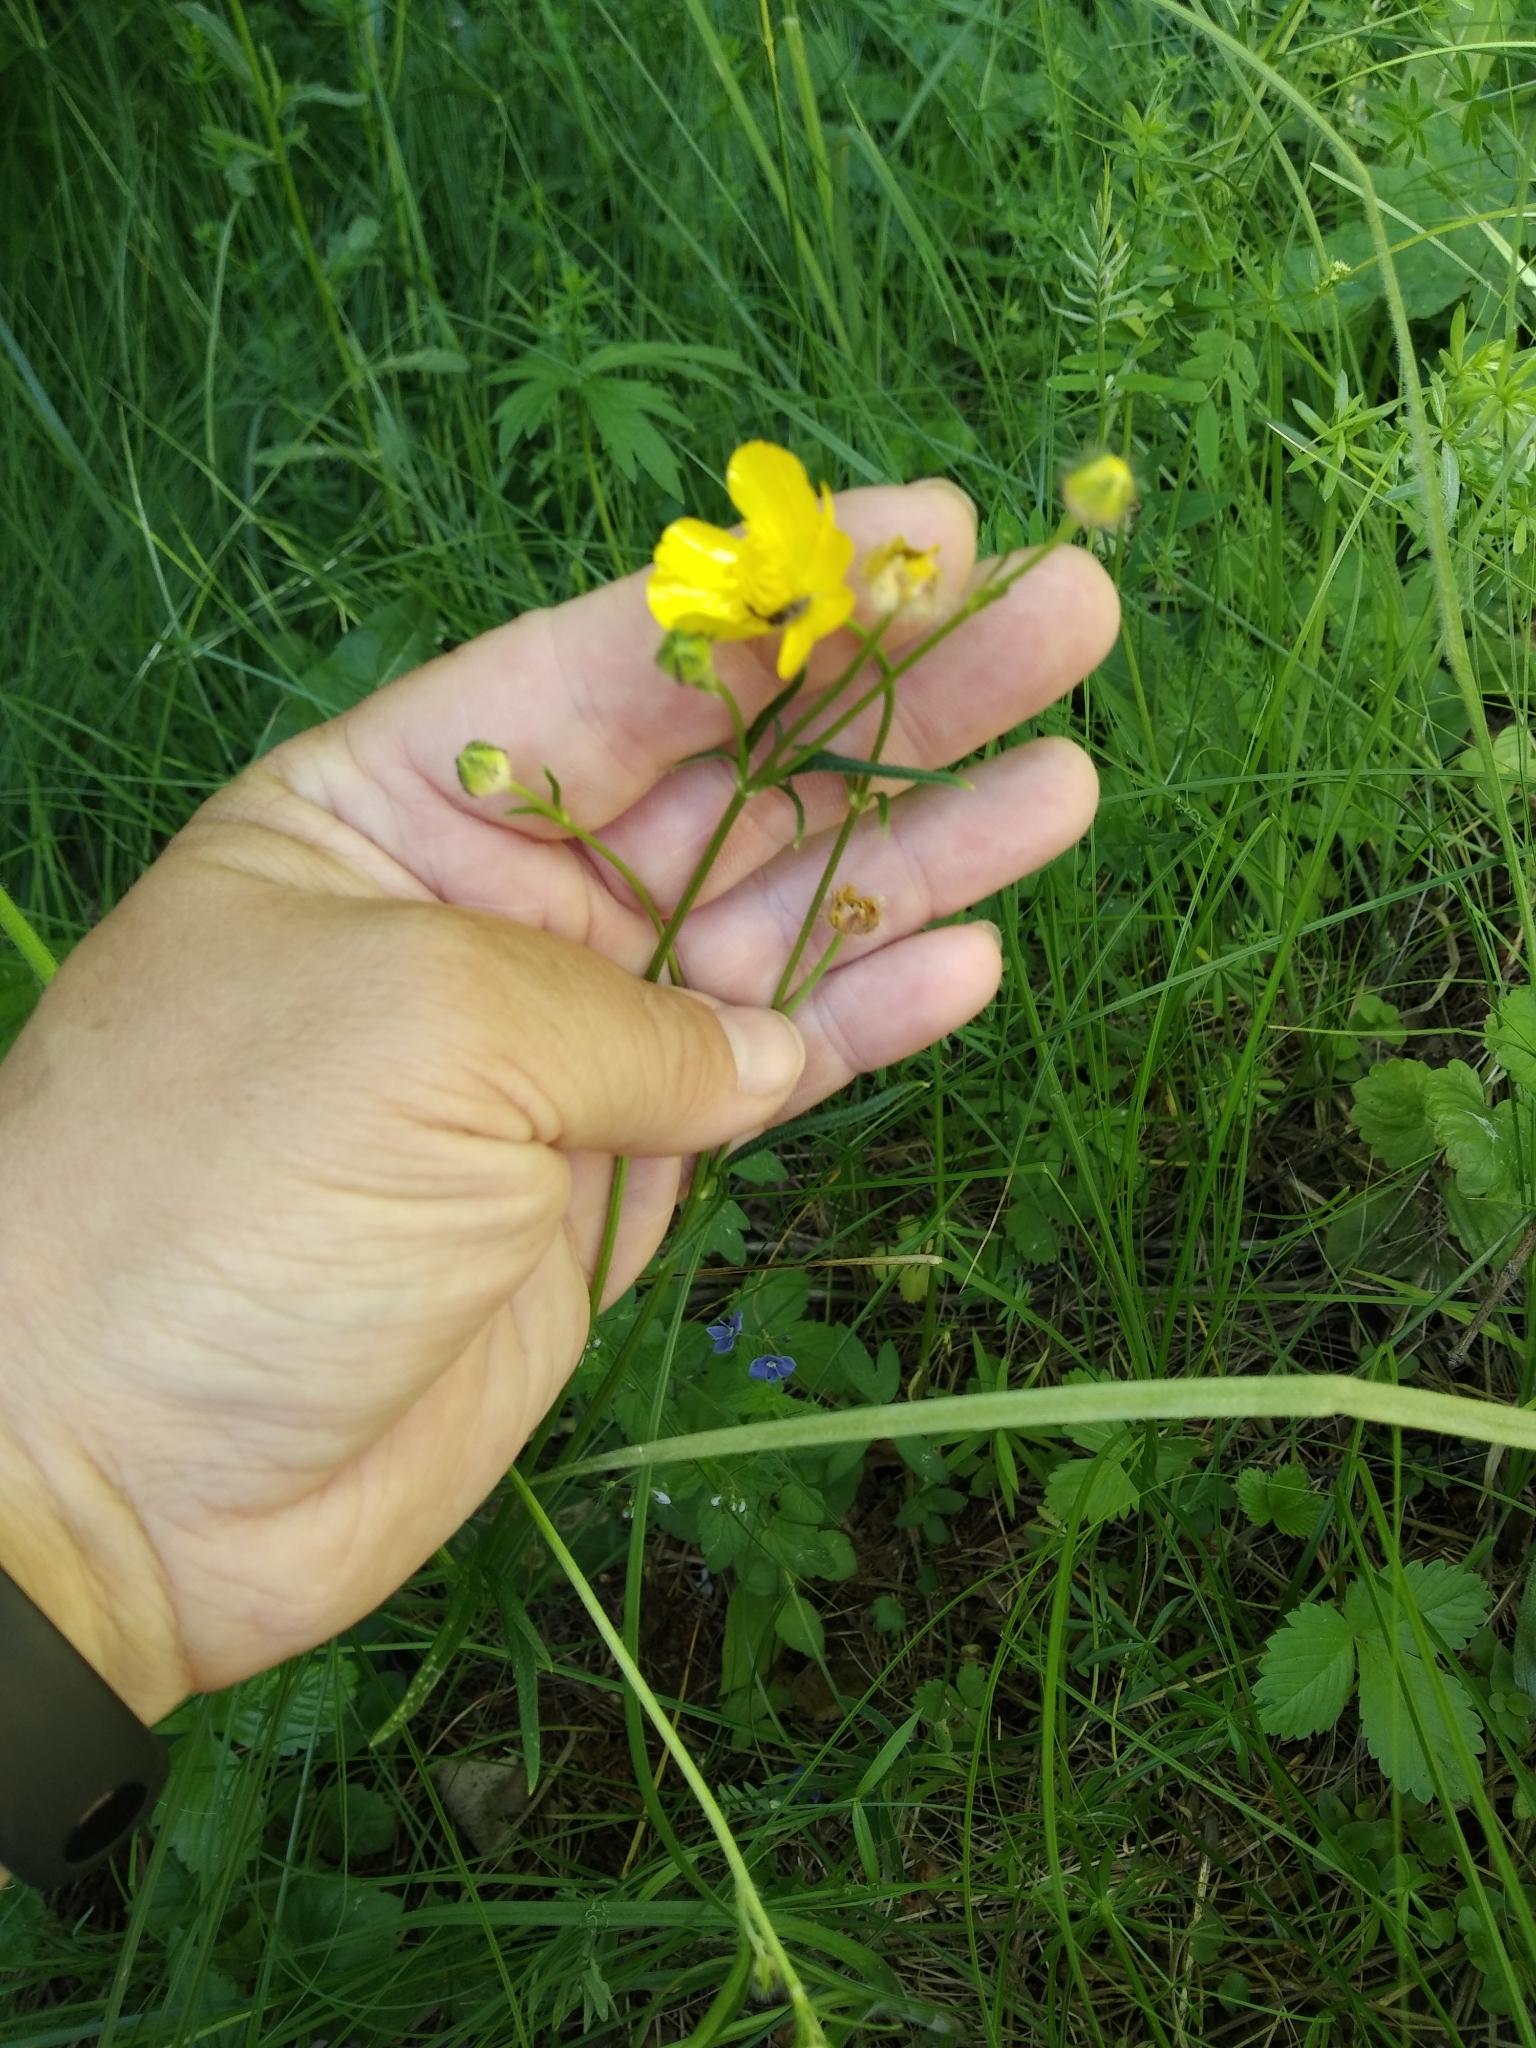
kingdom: Plantae
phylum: Tracheophyta
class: Magnoliopsida
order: Ranunculales
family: Ranunculaceae
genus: Ranunculus
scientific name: Ranunculus polyanthemos
